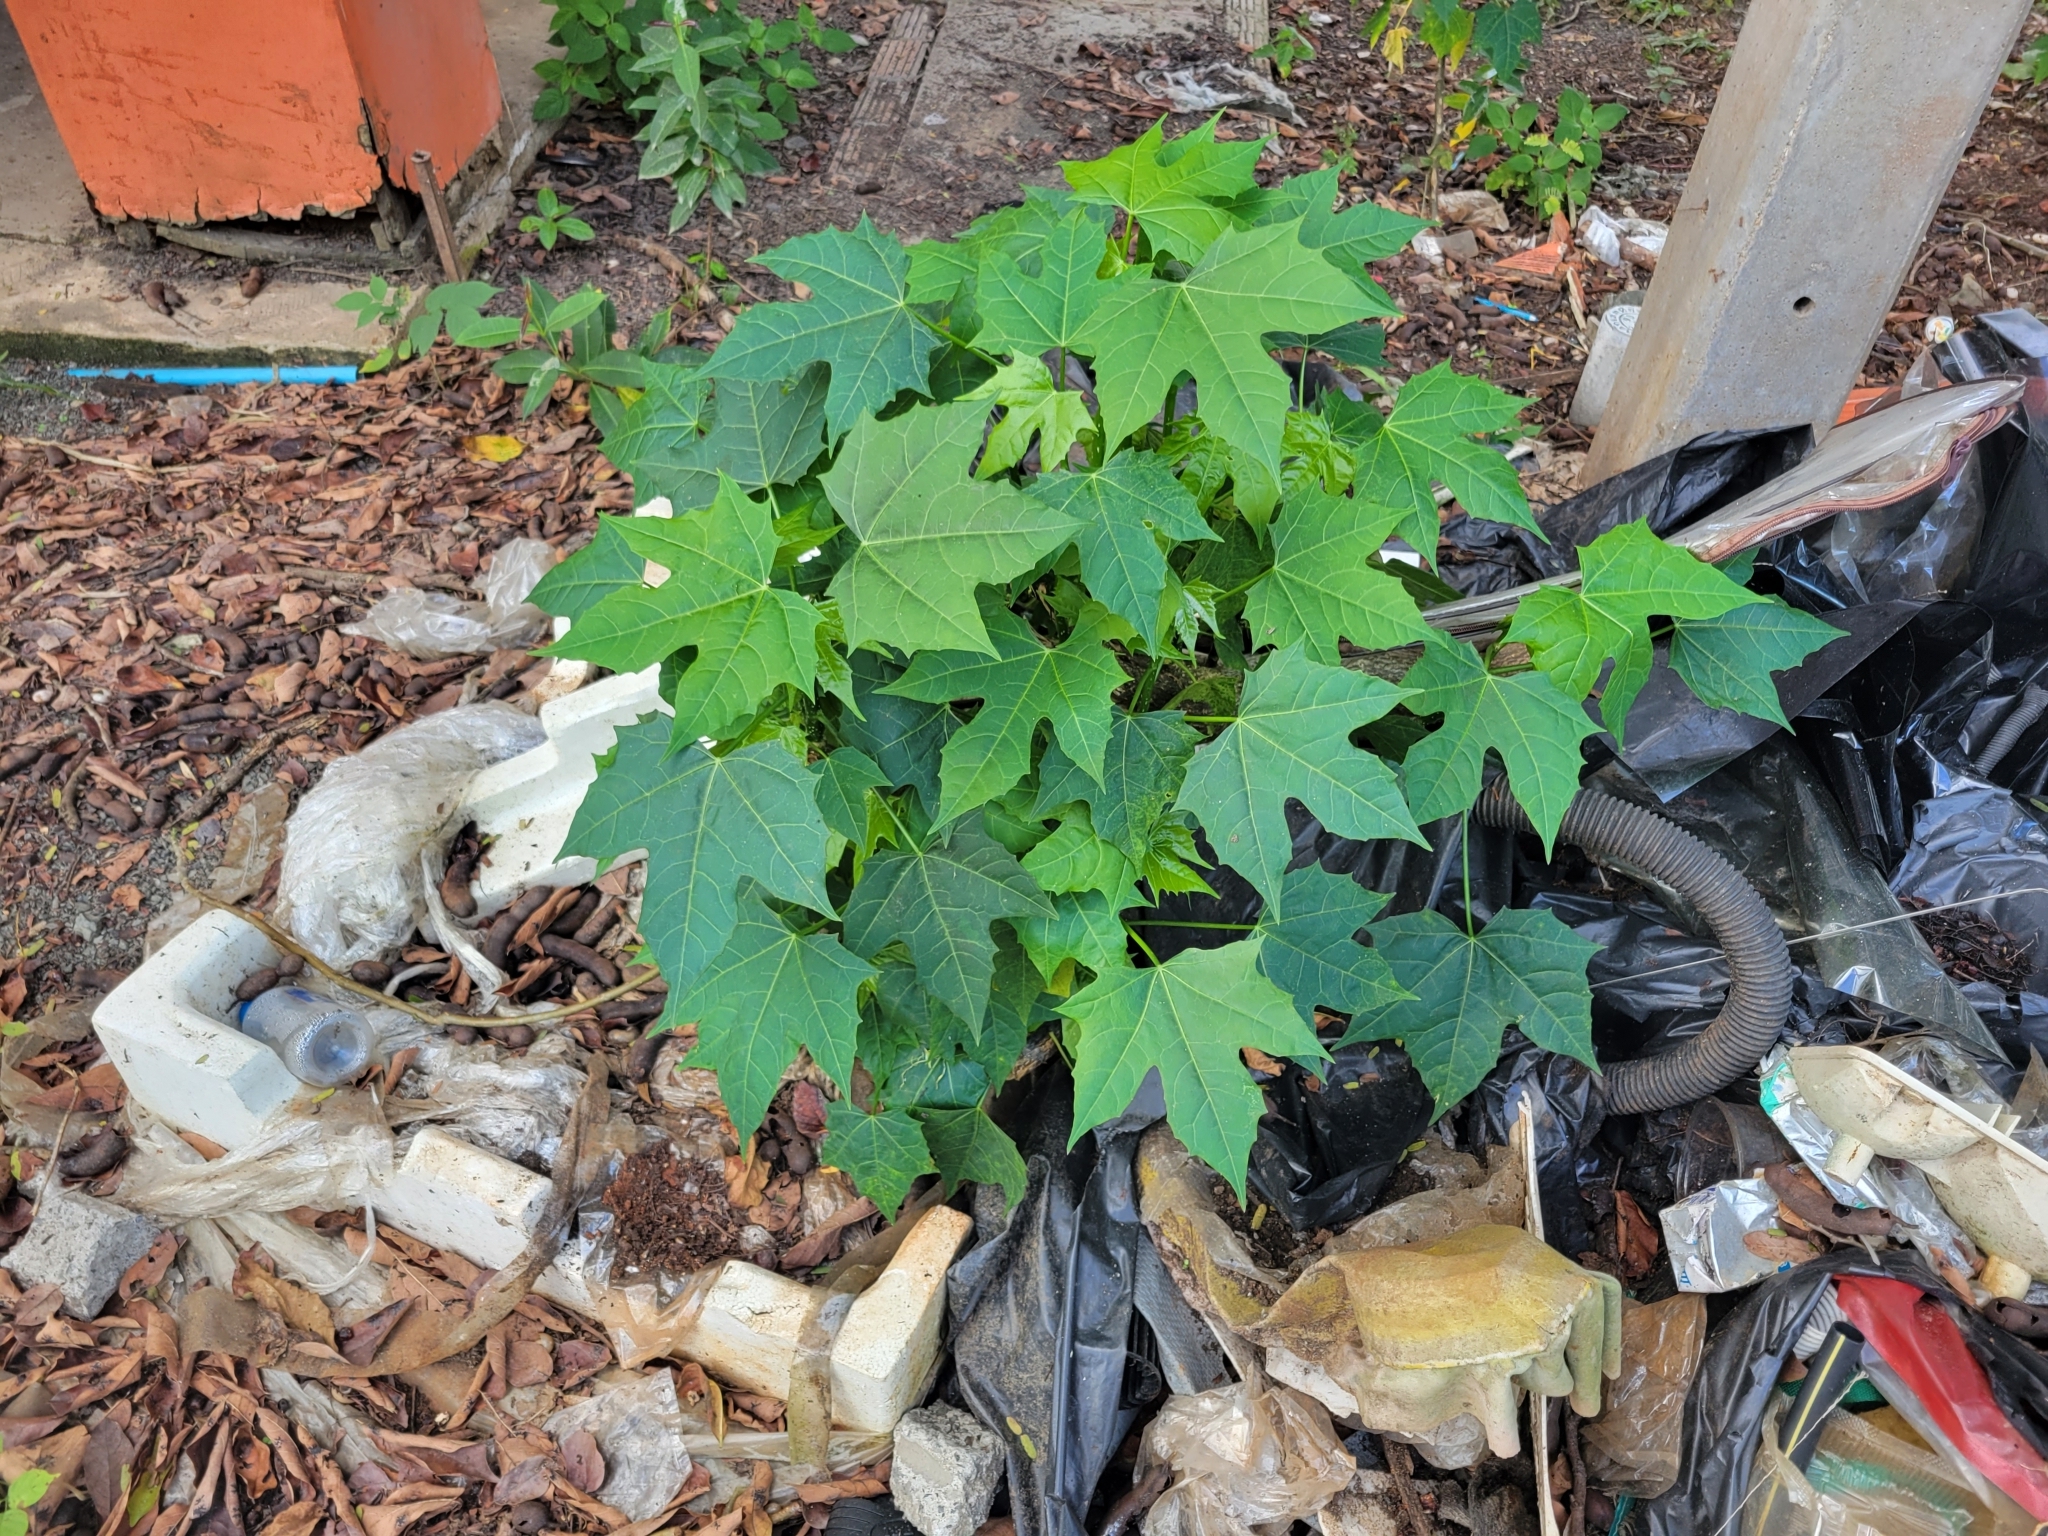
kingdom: Plantae
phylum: Tracheophyta
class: Magnoliopsida
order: Malpighiales
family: Euphorbiaceae
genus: Cnidoscolus
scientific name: Cnidoscolus aconitifolius
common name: Cabbage-star
